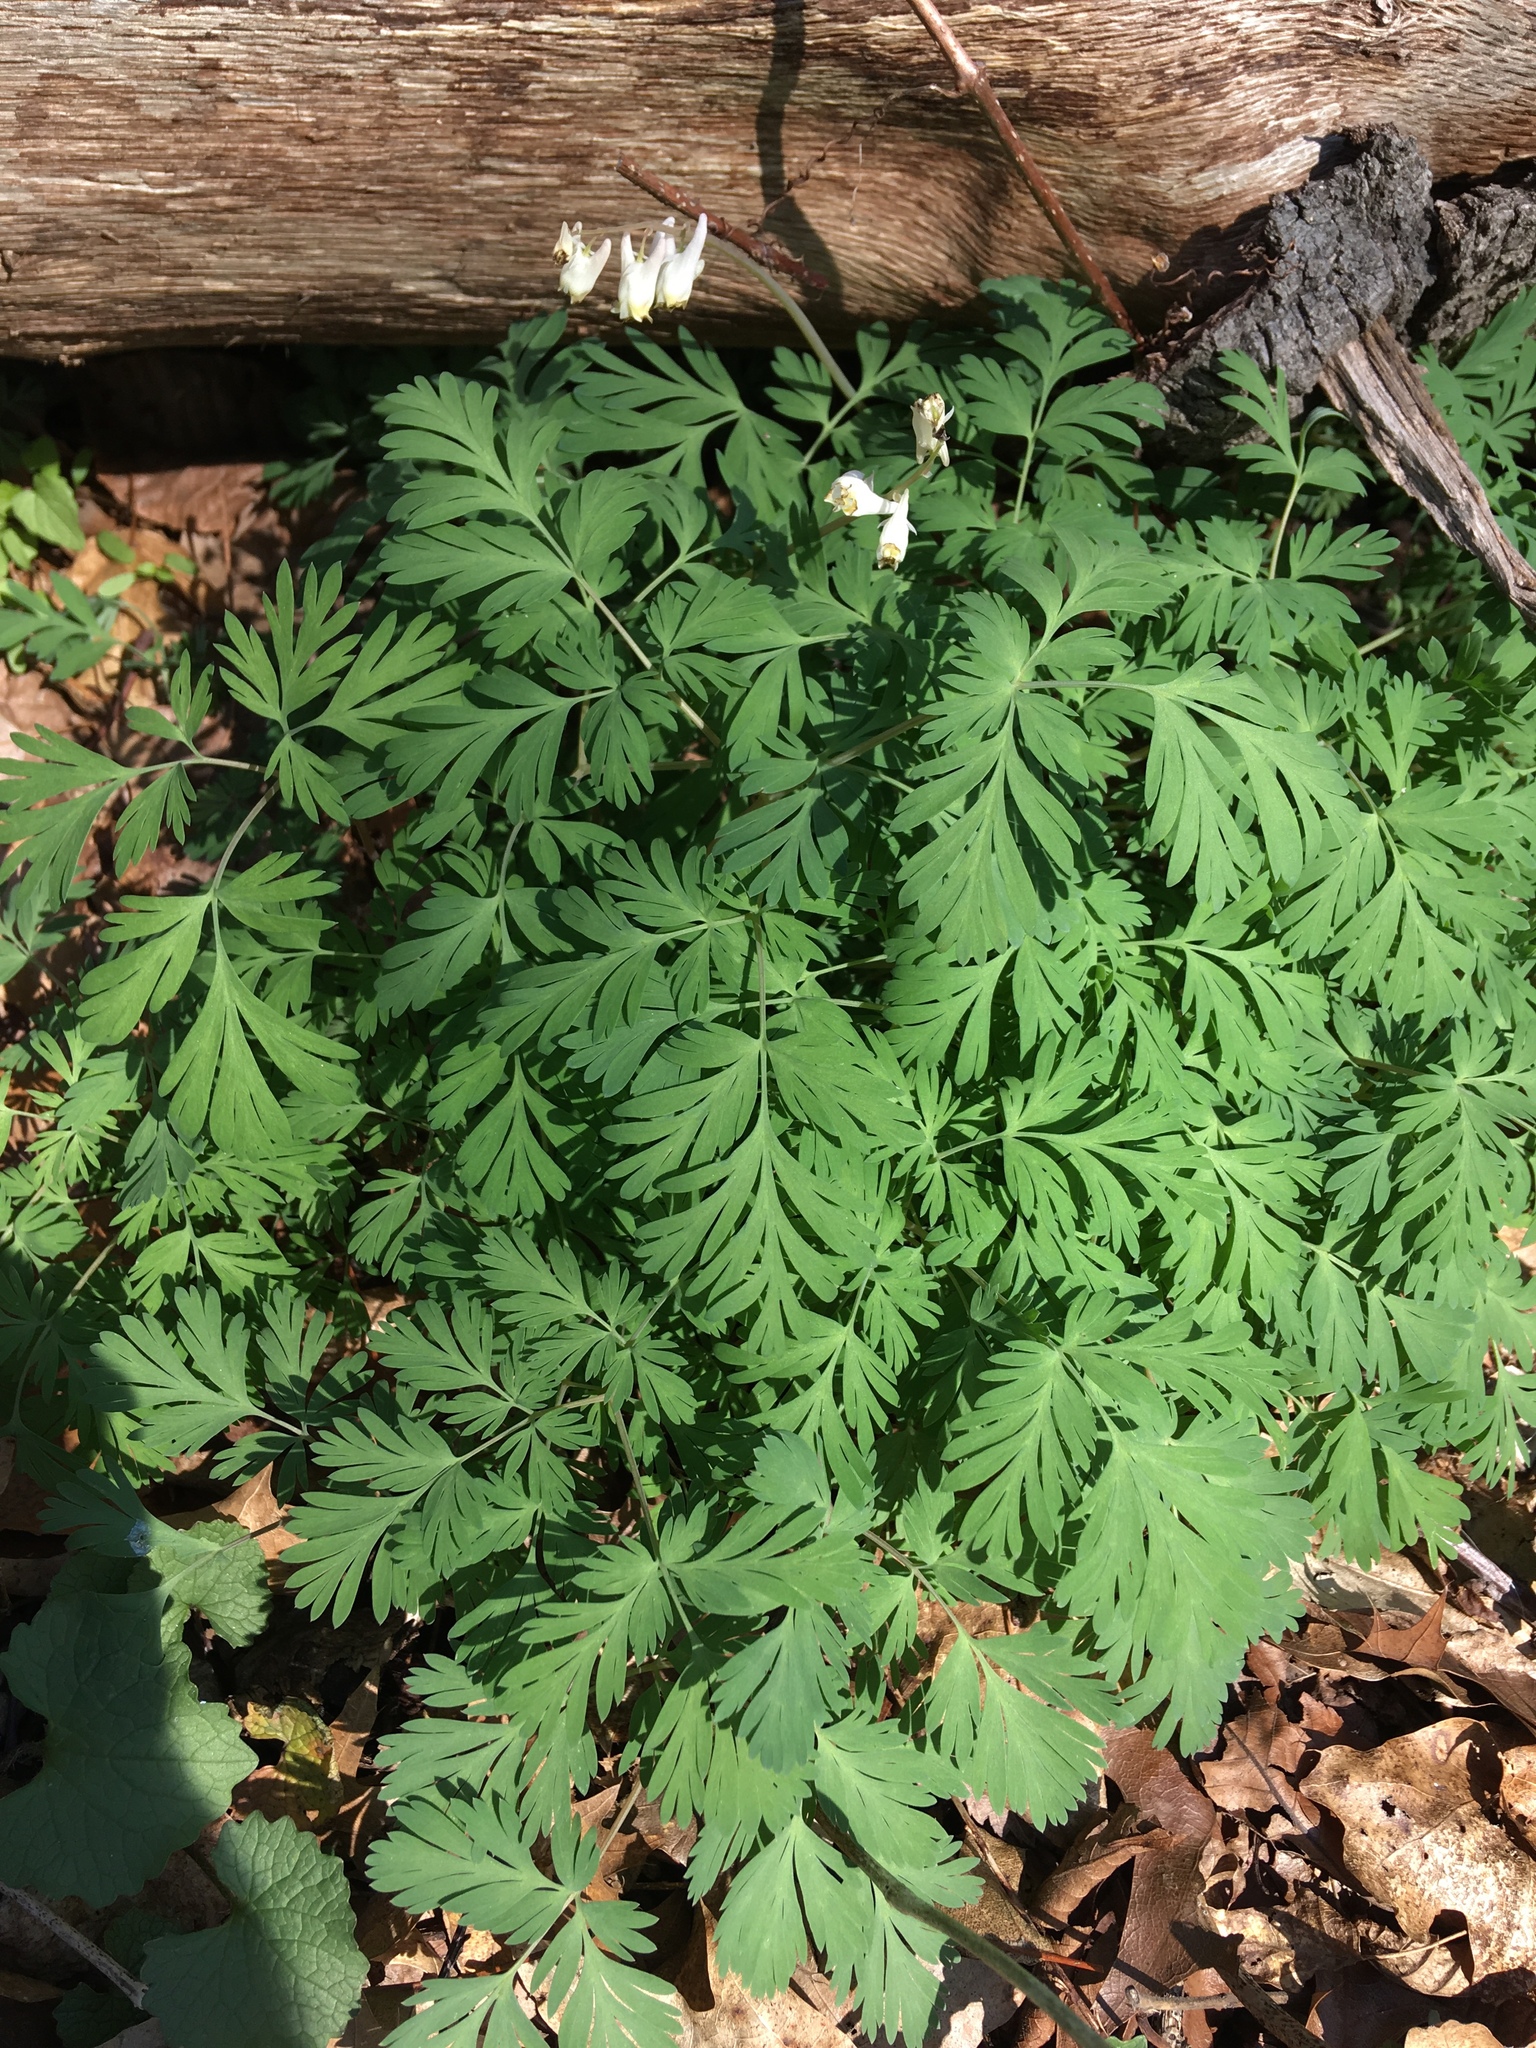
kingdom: Plantae
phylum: Tracheophyta
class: Magnoliopsida
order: Ranunculales
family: Papaveraceae
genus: Dicentra
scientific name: Dicentra cucullaria
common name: Dutchman's breeches
